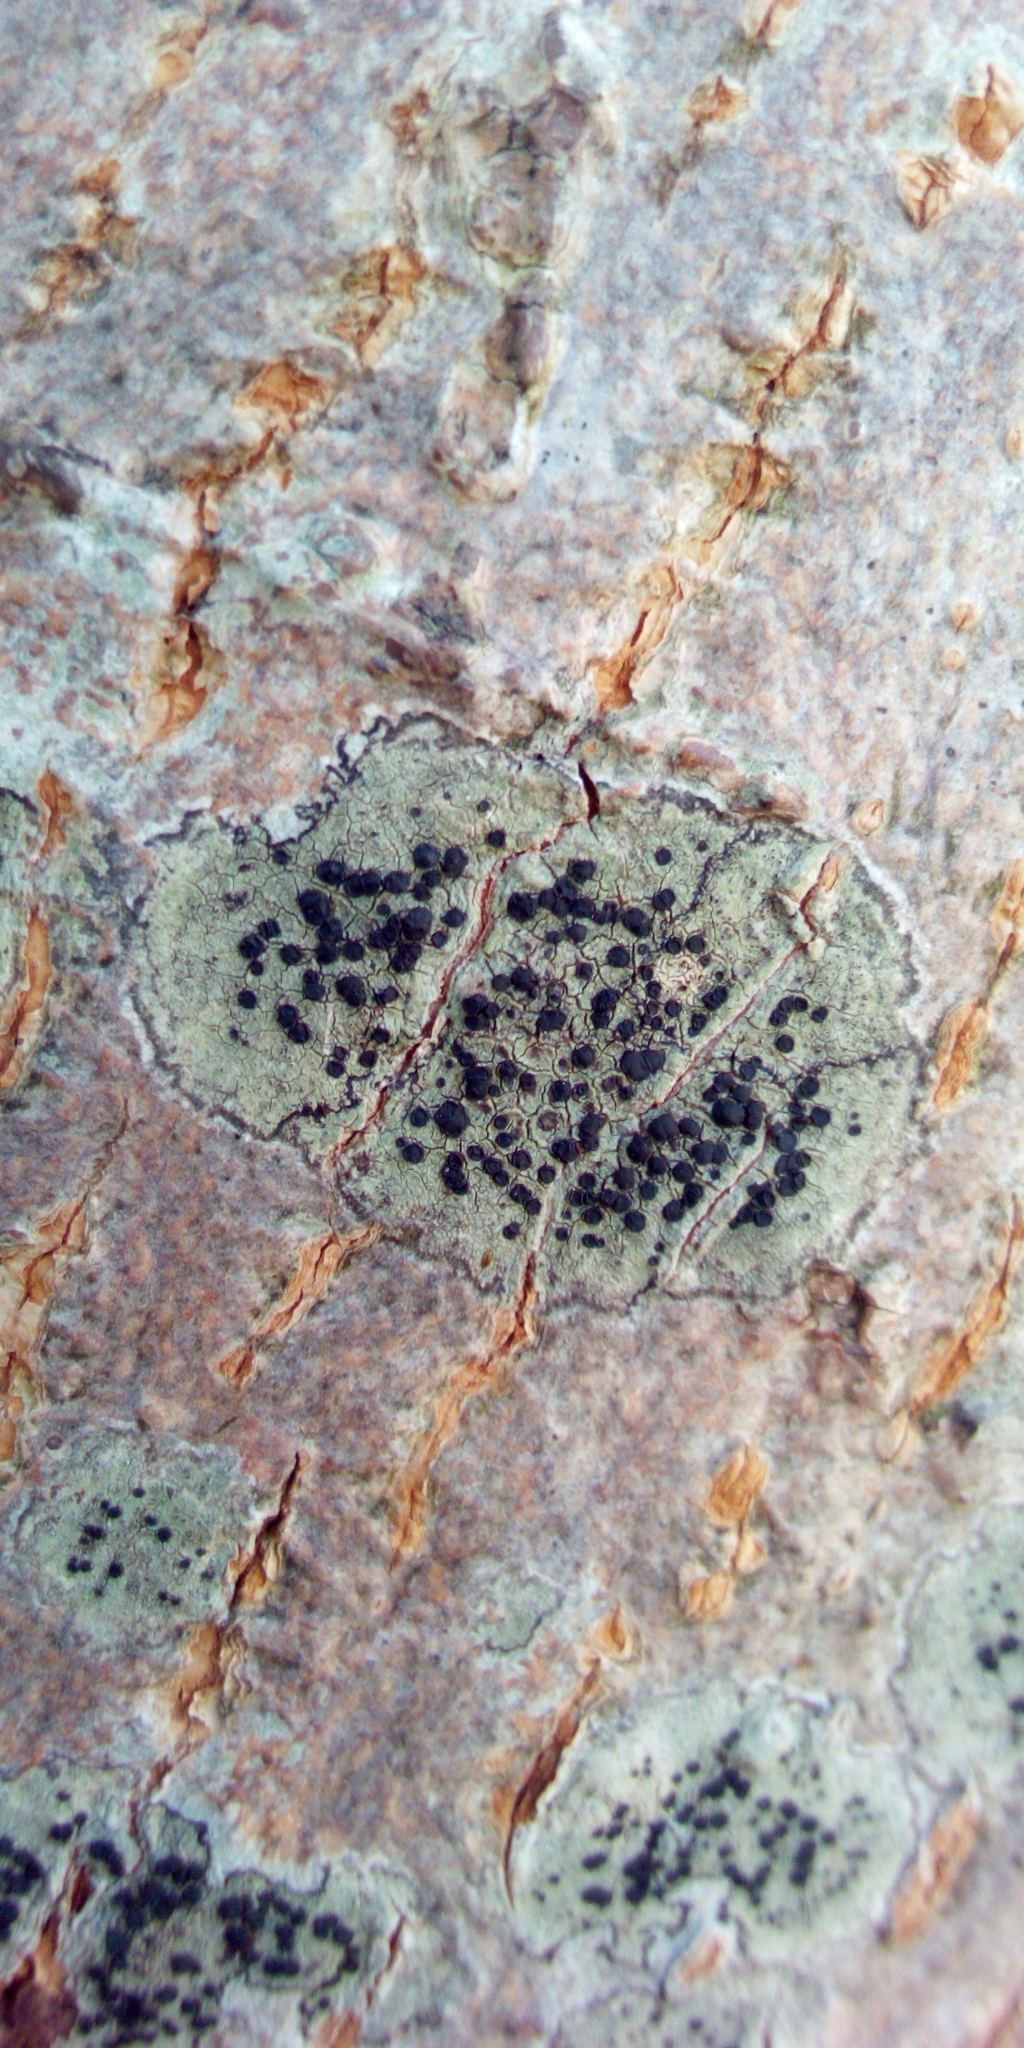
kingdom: Fungi
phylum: Ascomycota
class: Lecanoromycetes
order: Lecanorales
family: Lecanoraceae
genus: Lecidella
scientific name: Lecidella elaeochroma
